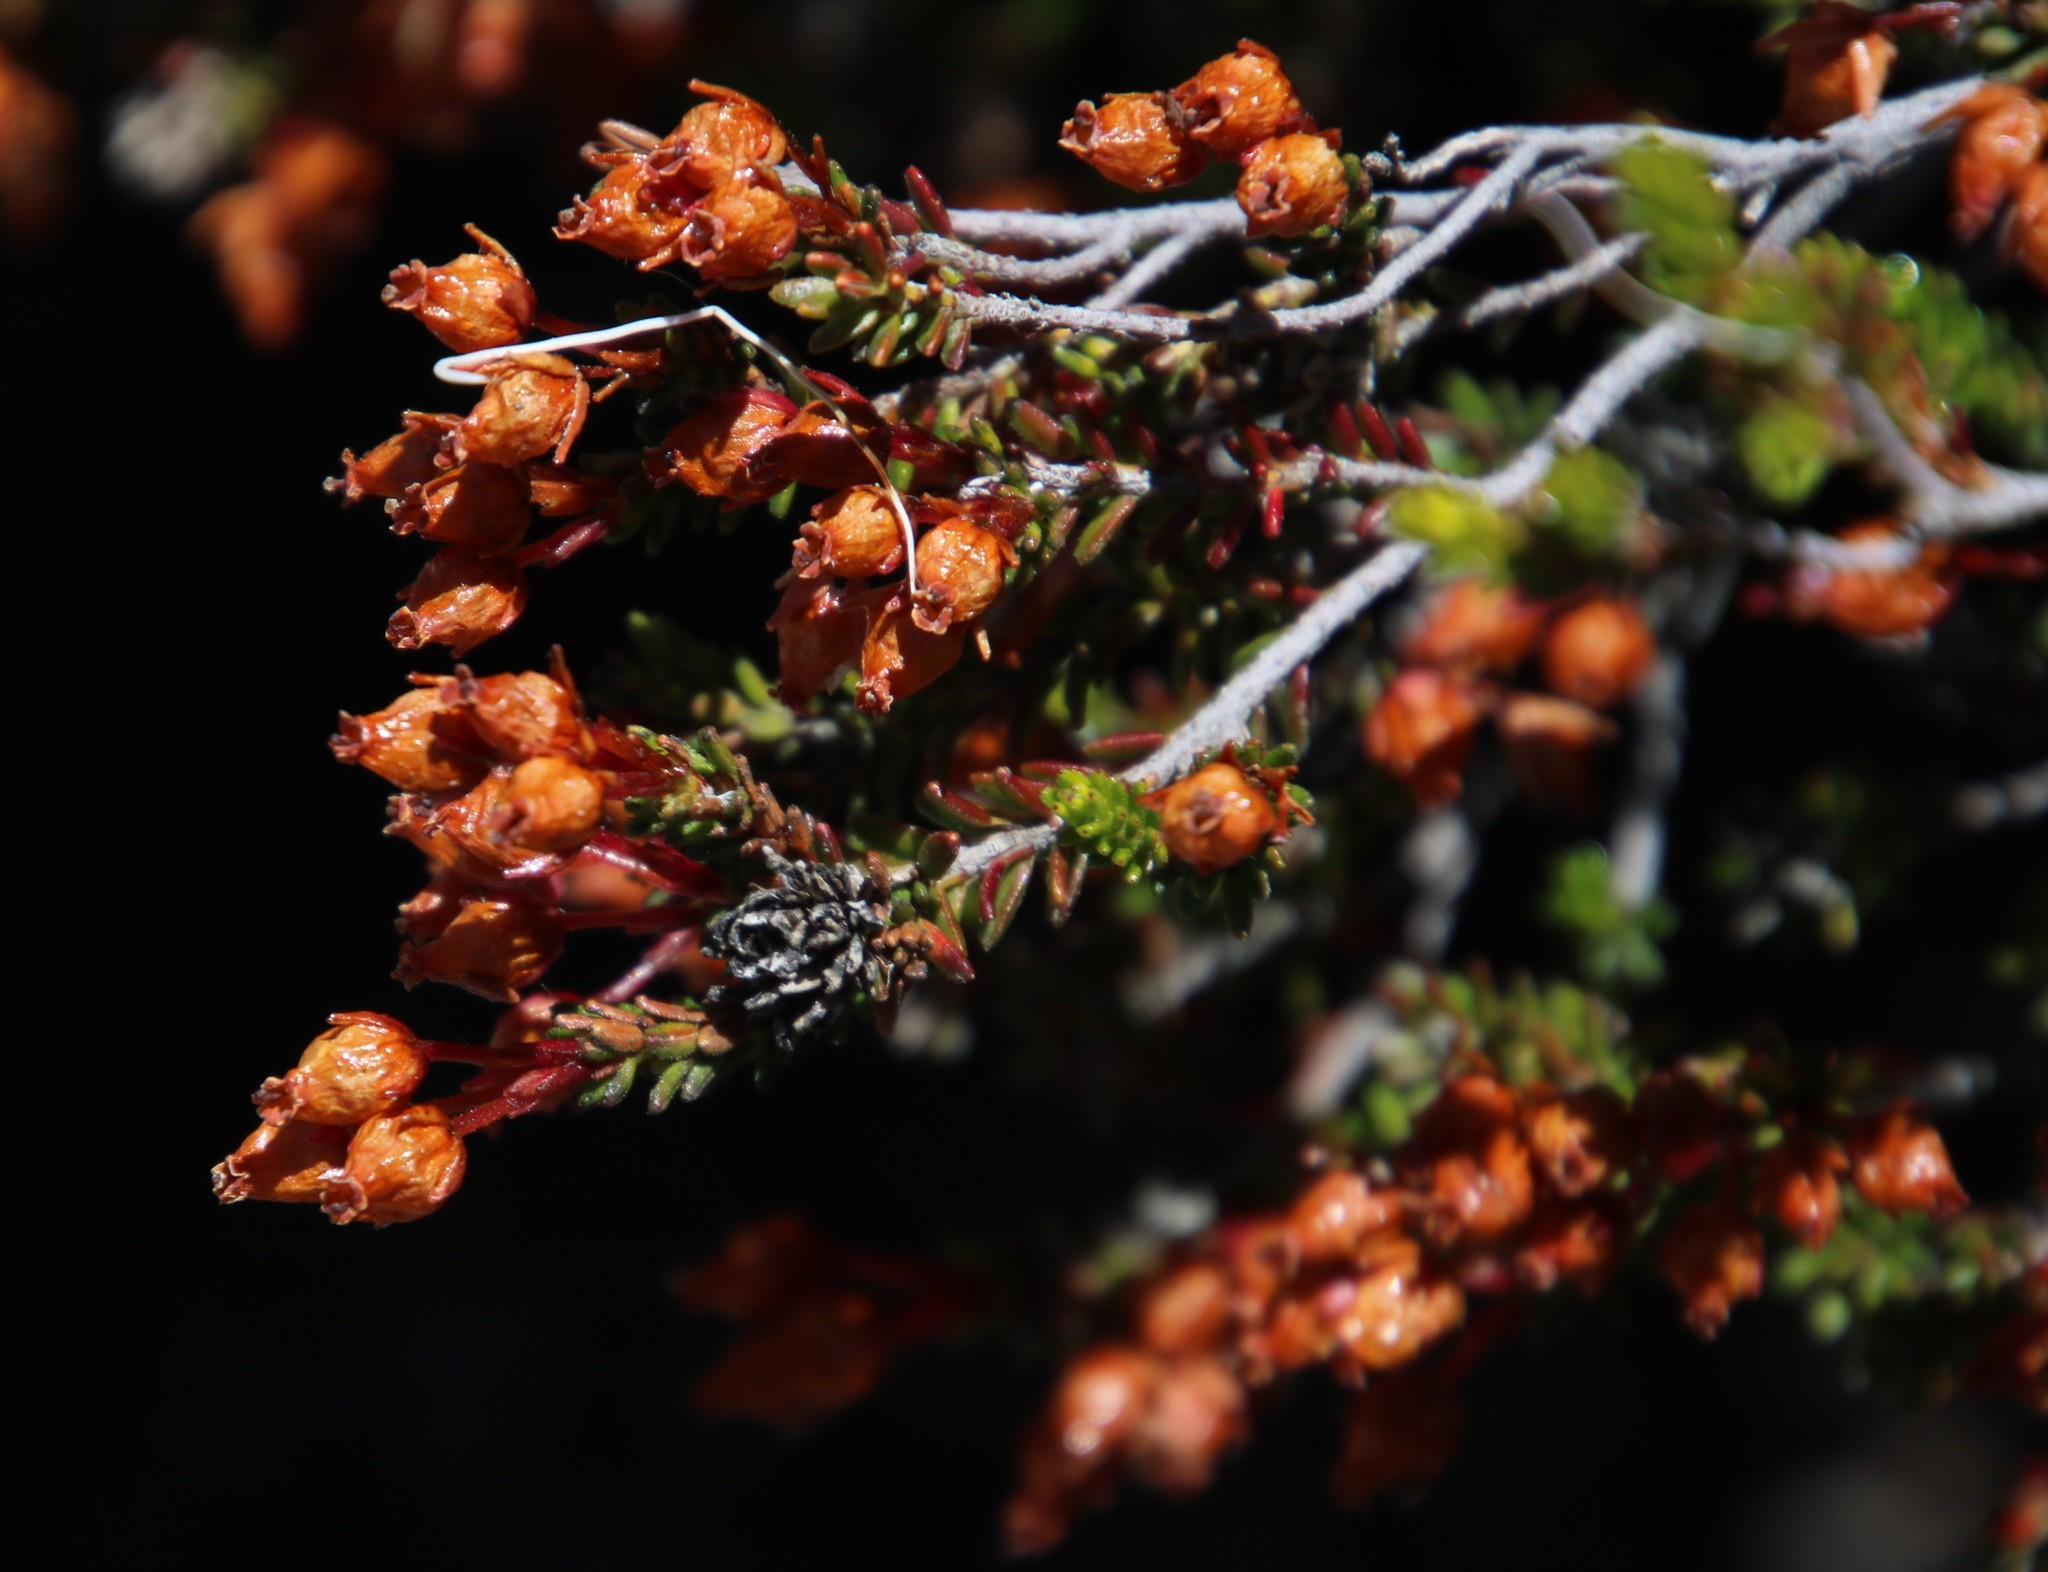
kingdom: Plantae
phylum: Tracheophyta
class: Magnoliopsida
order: Ericales
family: Ericaceae
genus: Erica
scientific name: Erica oresigena
